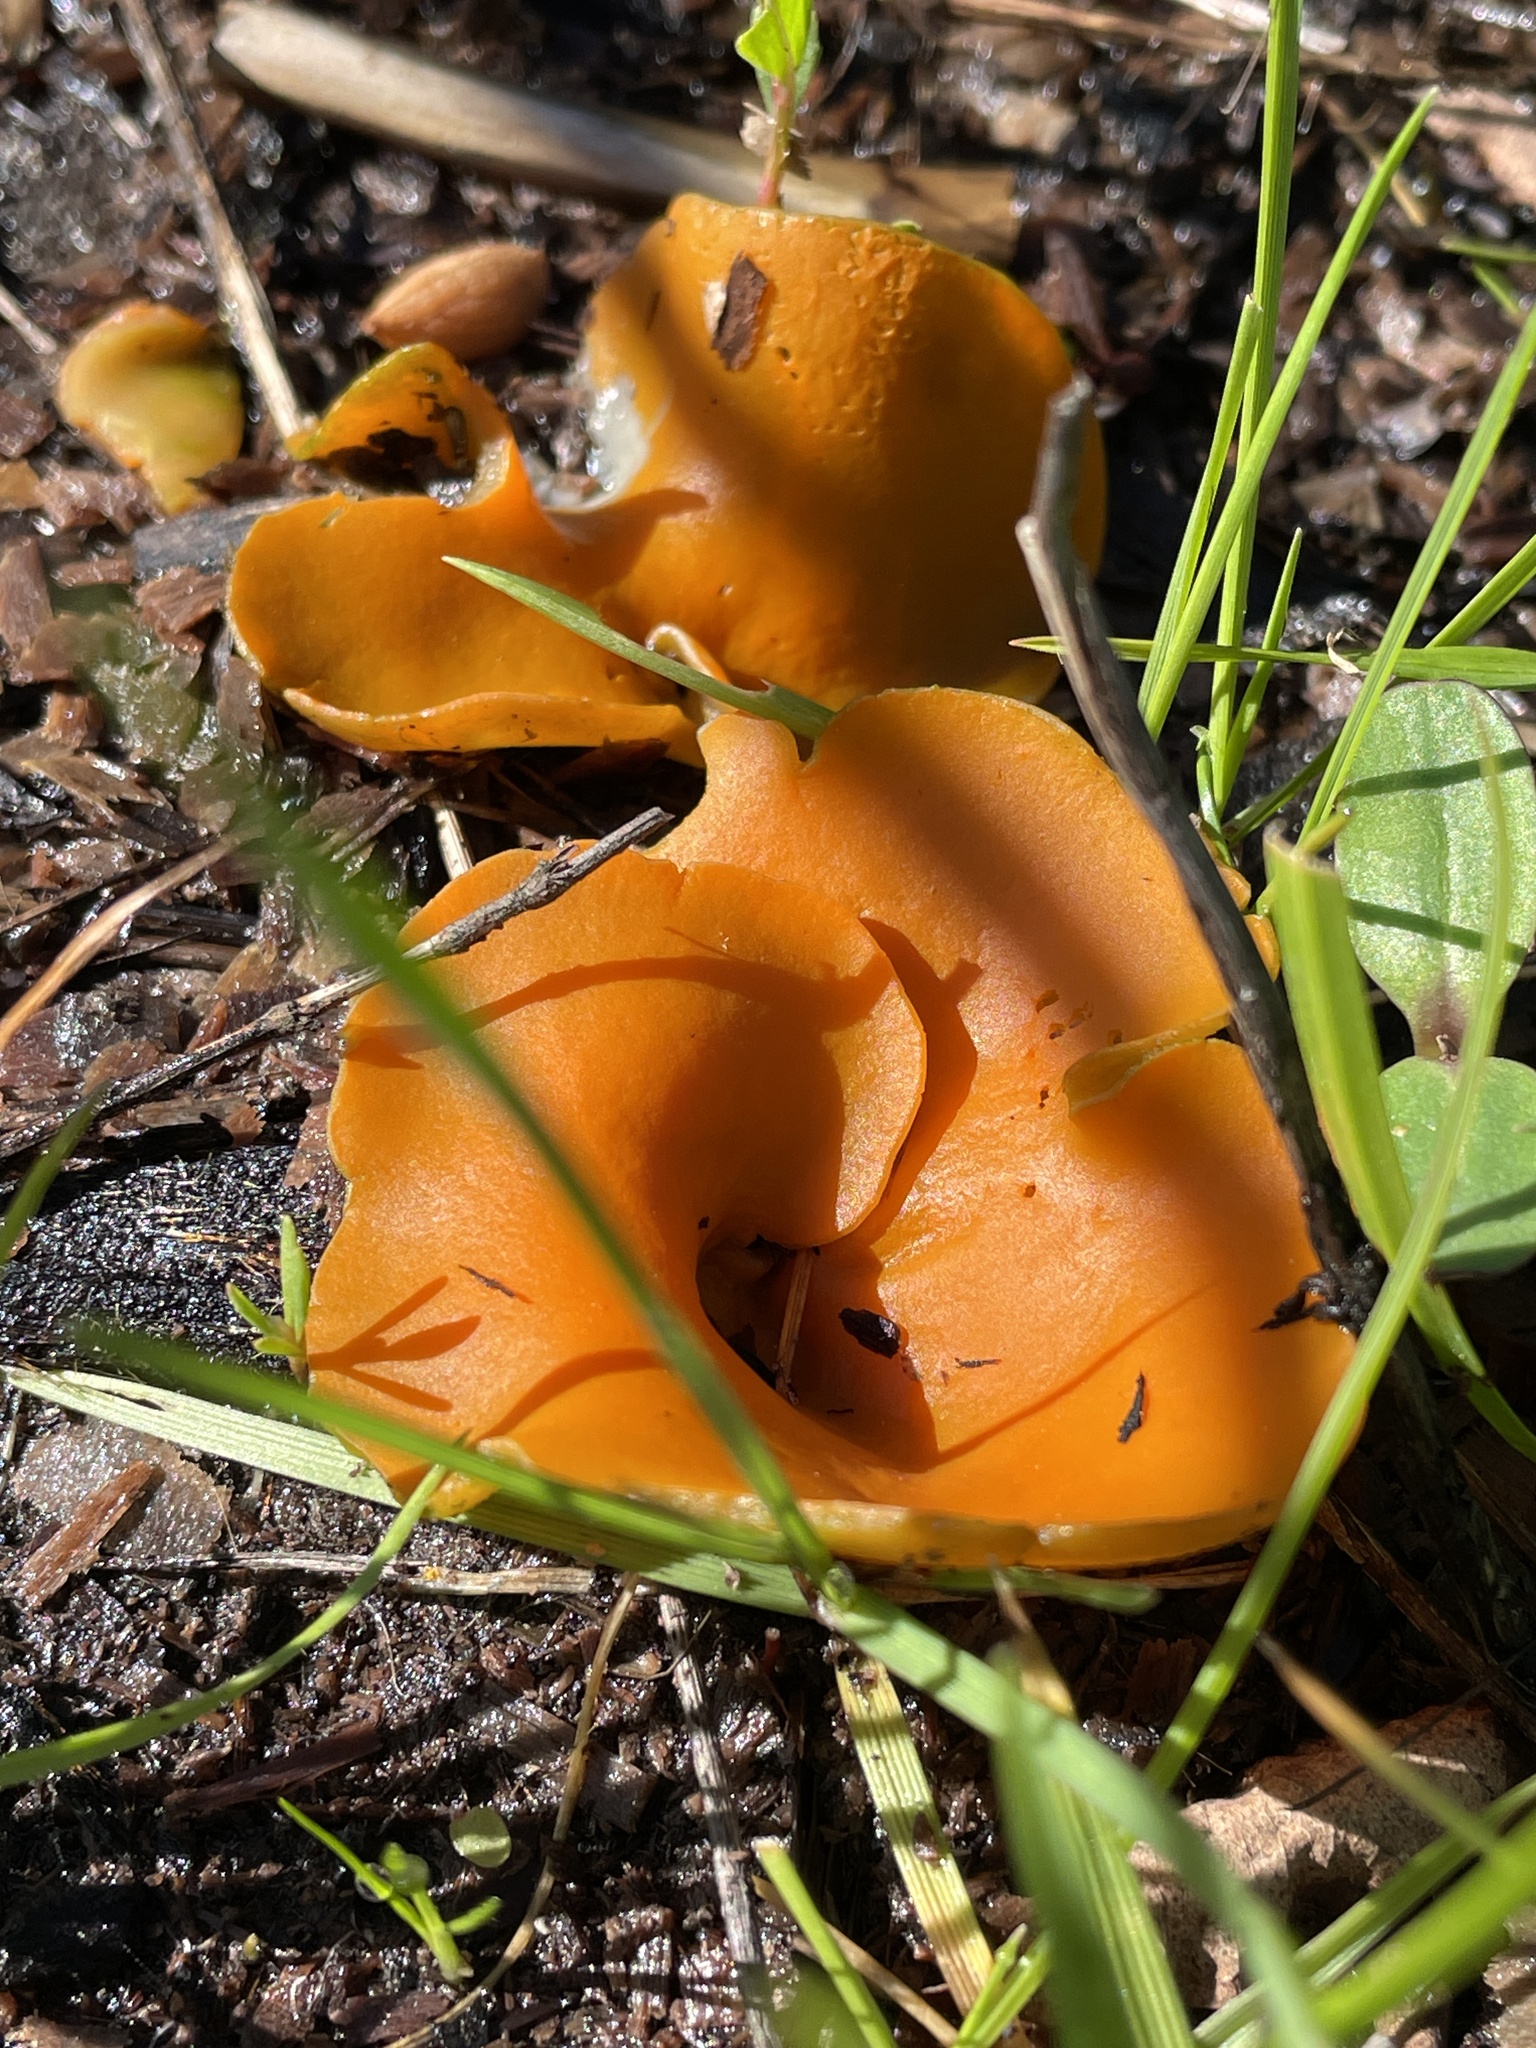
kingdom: Fungi
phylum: Ascomycota
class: Pezizomycetes
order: Pezizales
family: Pyronemataceae
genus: Aleuria
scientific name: Aleuria aurantia
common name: Orange peel fungus
